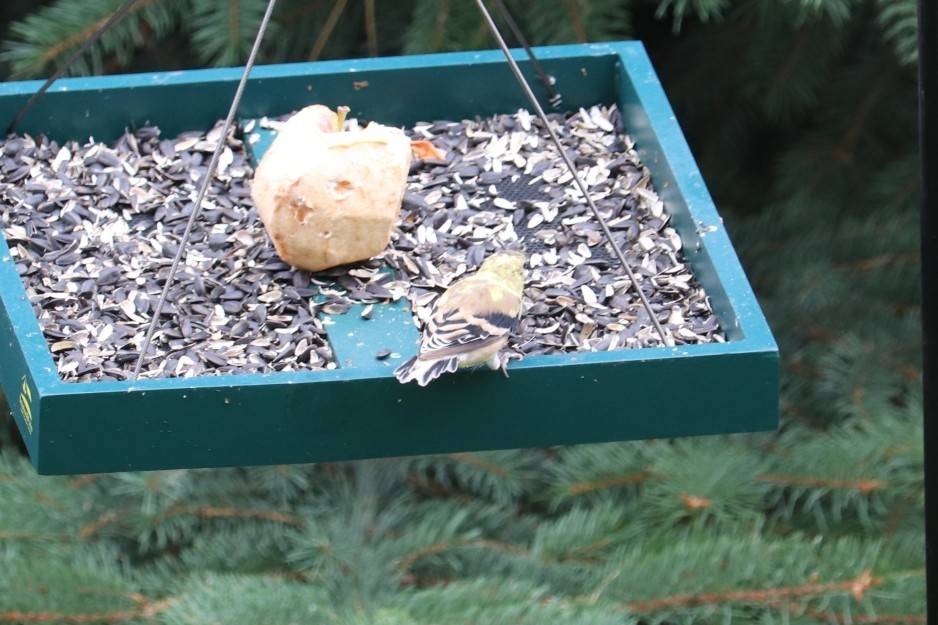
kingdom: Animalia
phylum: Chordata
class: Aves
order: Passeriformes
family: Fringillidae
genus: Spinus
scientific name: Spinus tristis
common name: American goldfinch
